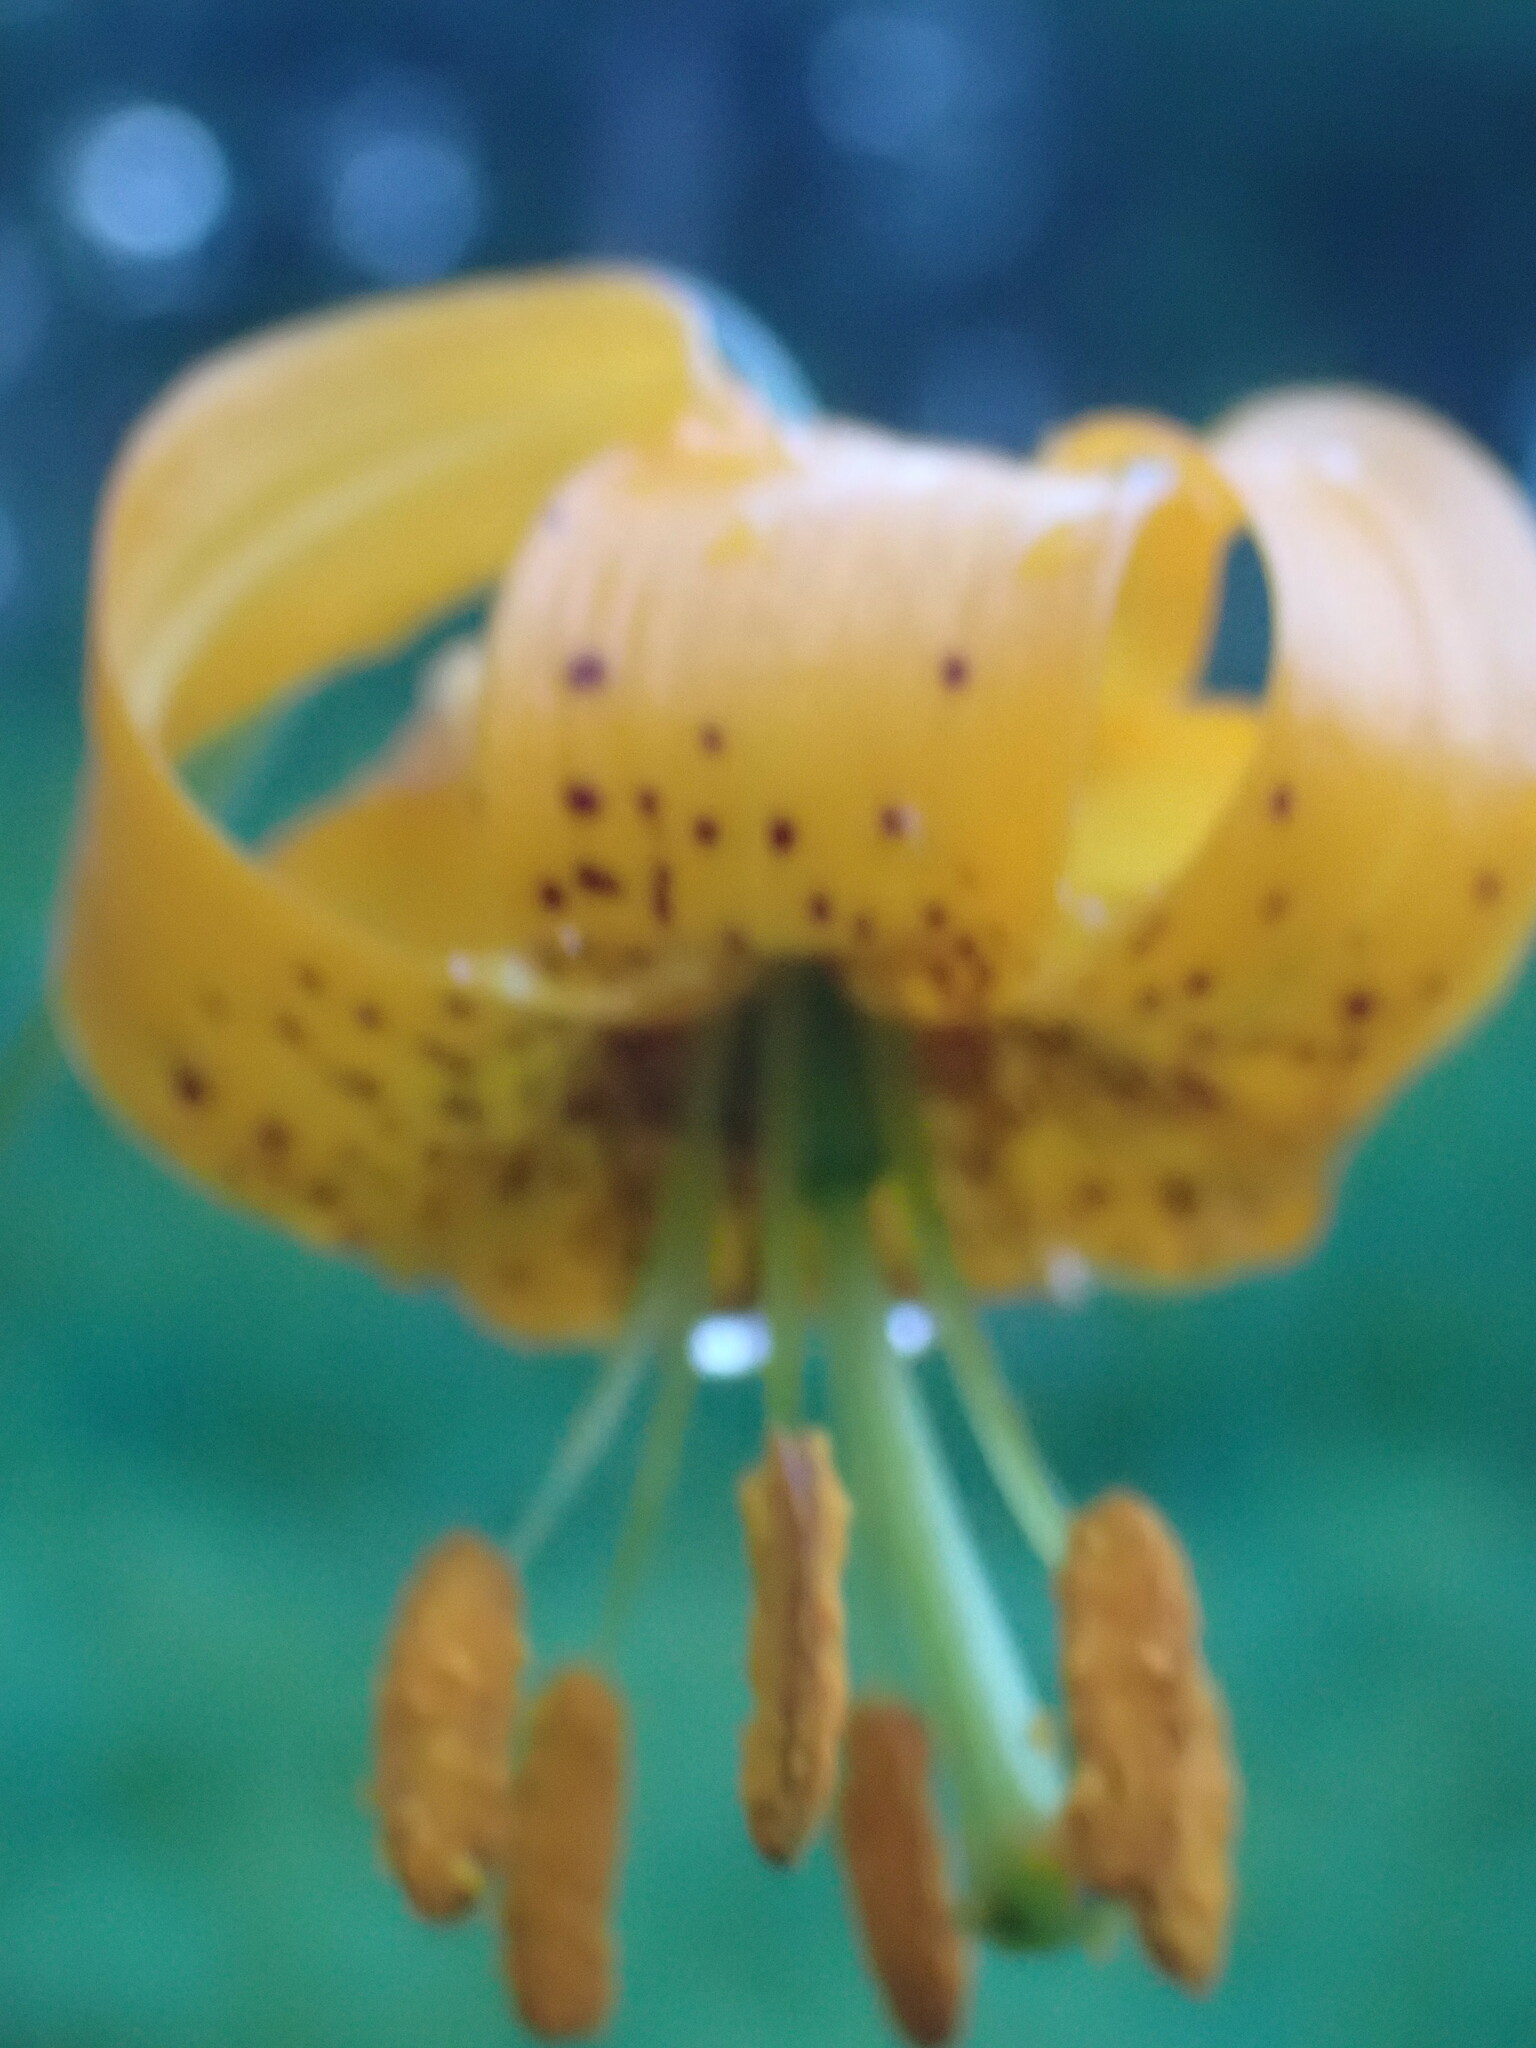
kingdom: Plantae
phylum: Tracheophyta
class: Liliopsida
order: Liliales
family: Liliaceae
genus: Lilium
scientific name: Lilium columbianum
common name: Columbia lily
